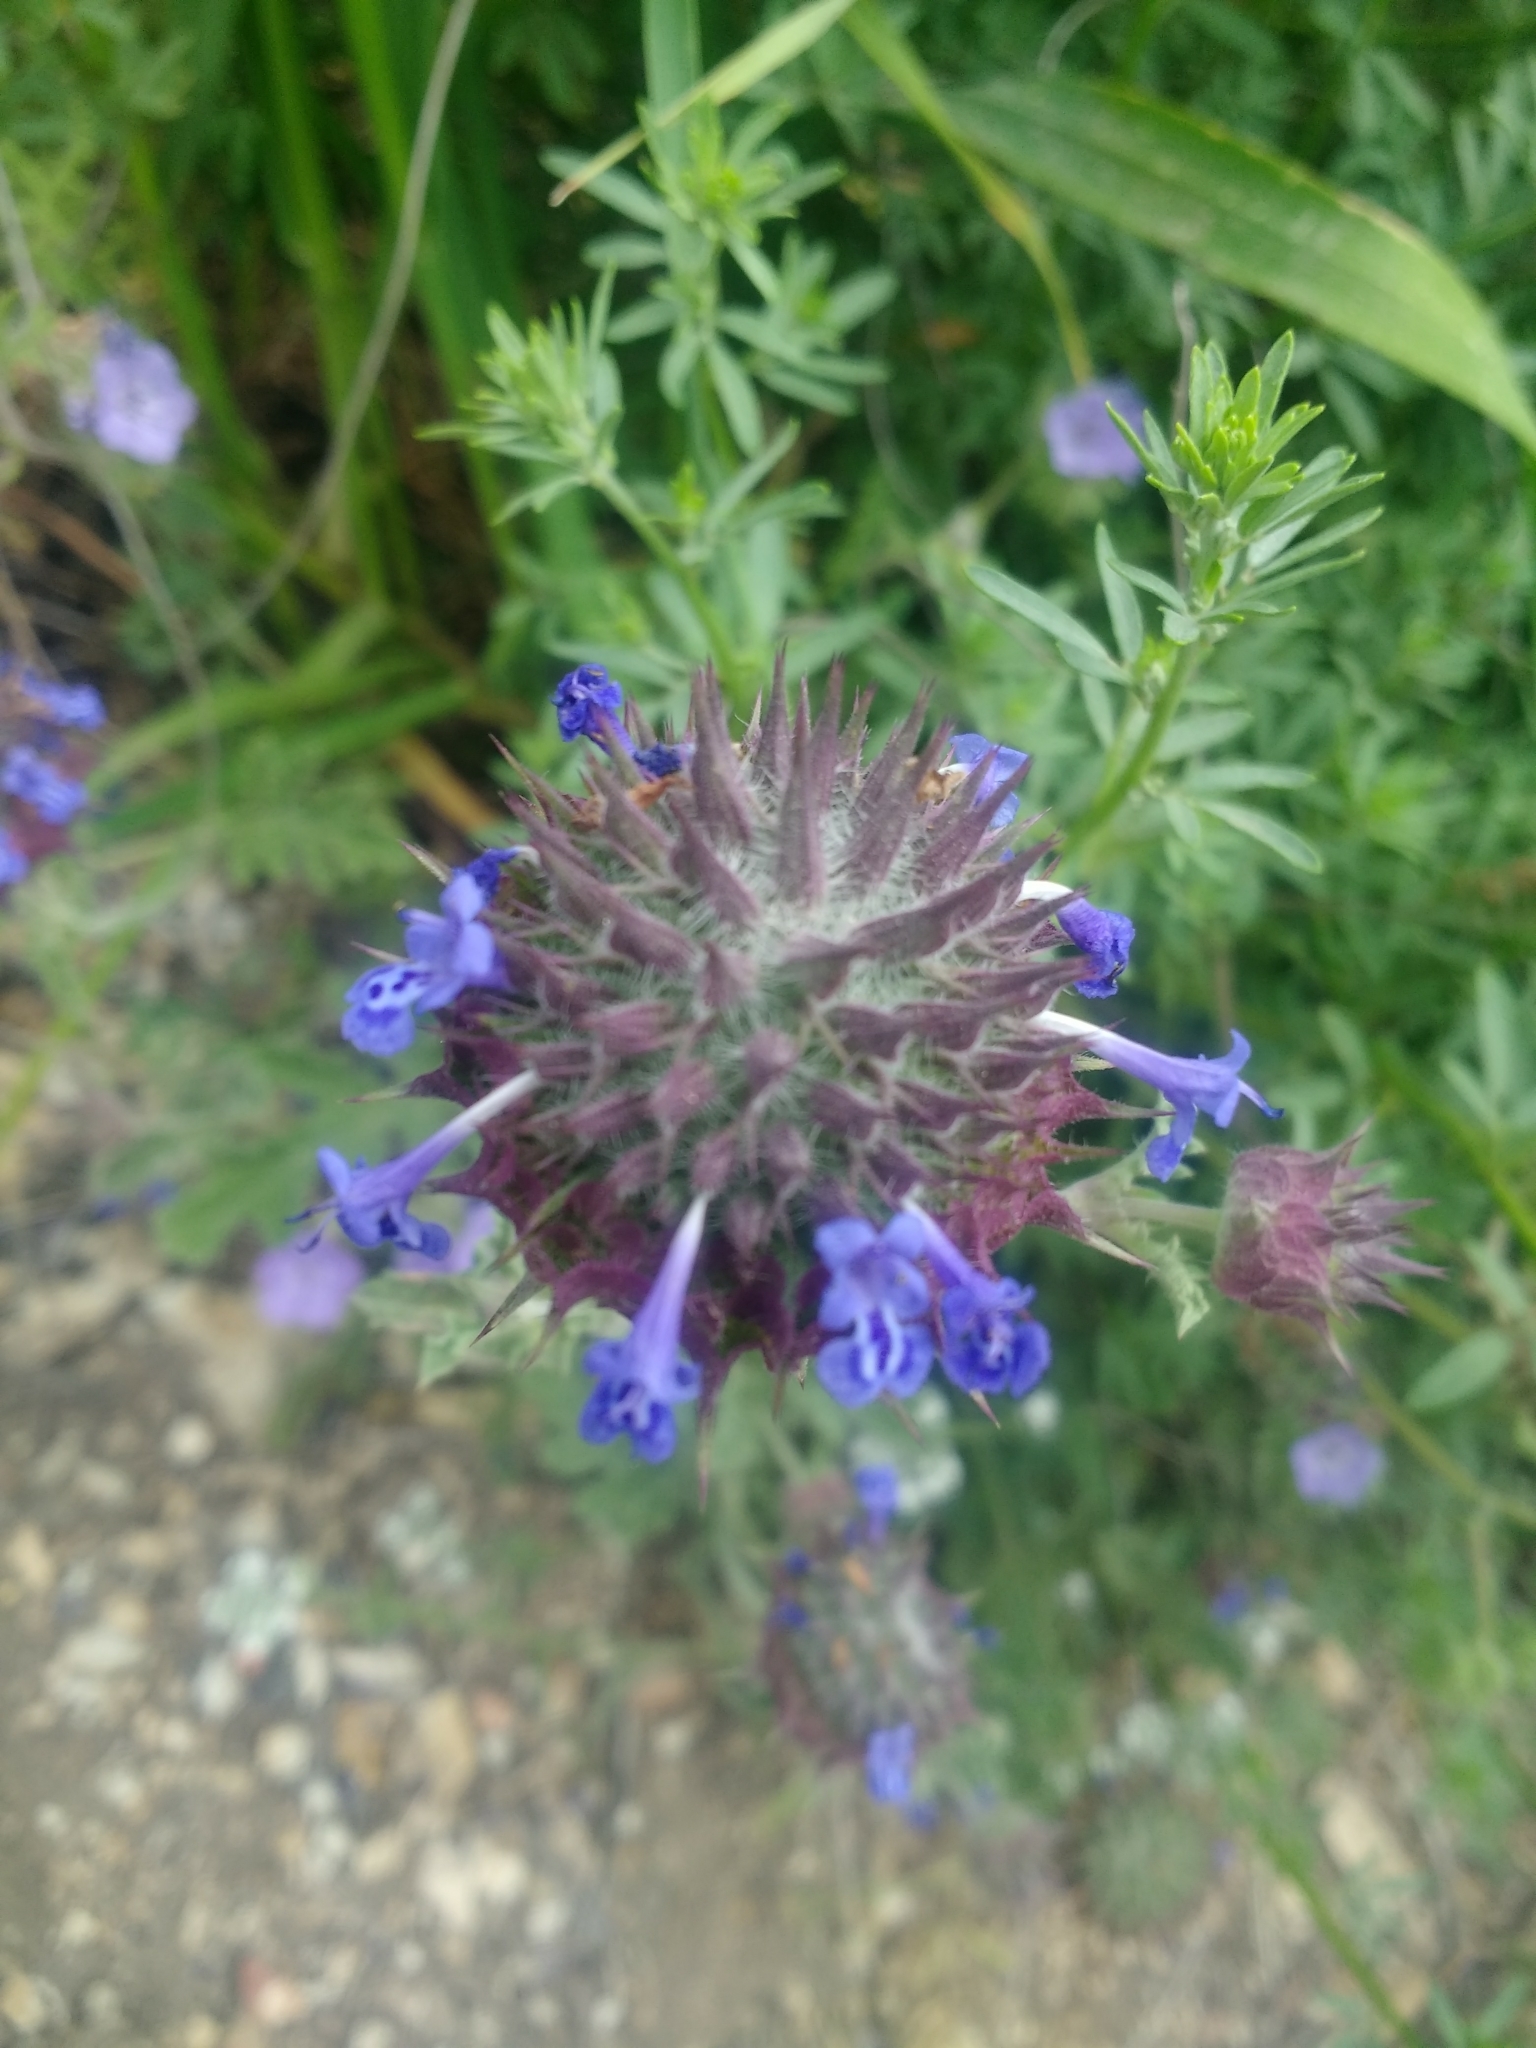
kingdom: Plantae
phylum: Tracheophyta
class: Magnoliopsida
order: Lamiales
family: Lamiaceae
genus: Salvia
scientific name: Salvia columbariae
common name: Chia
